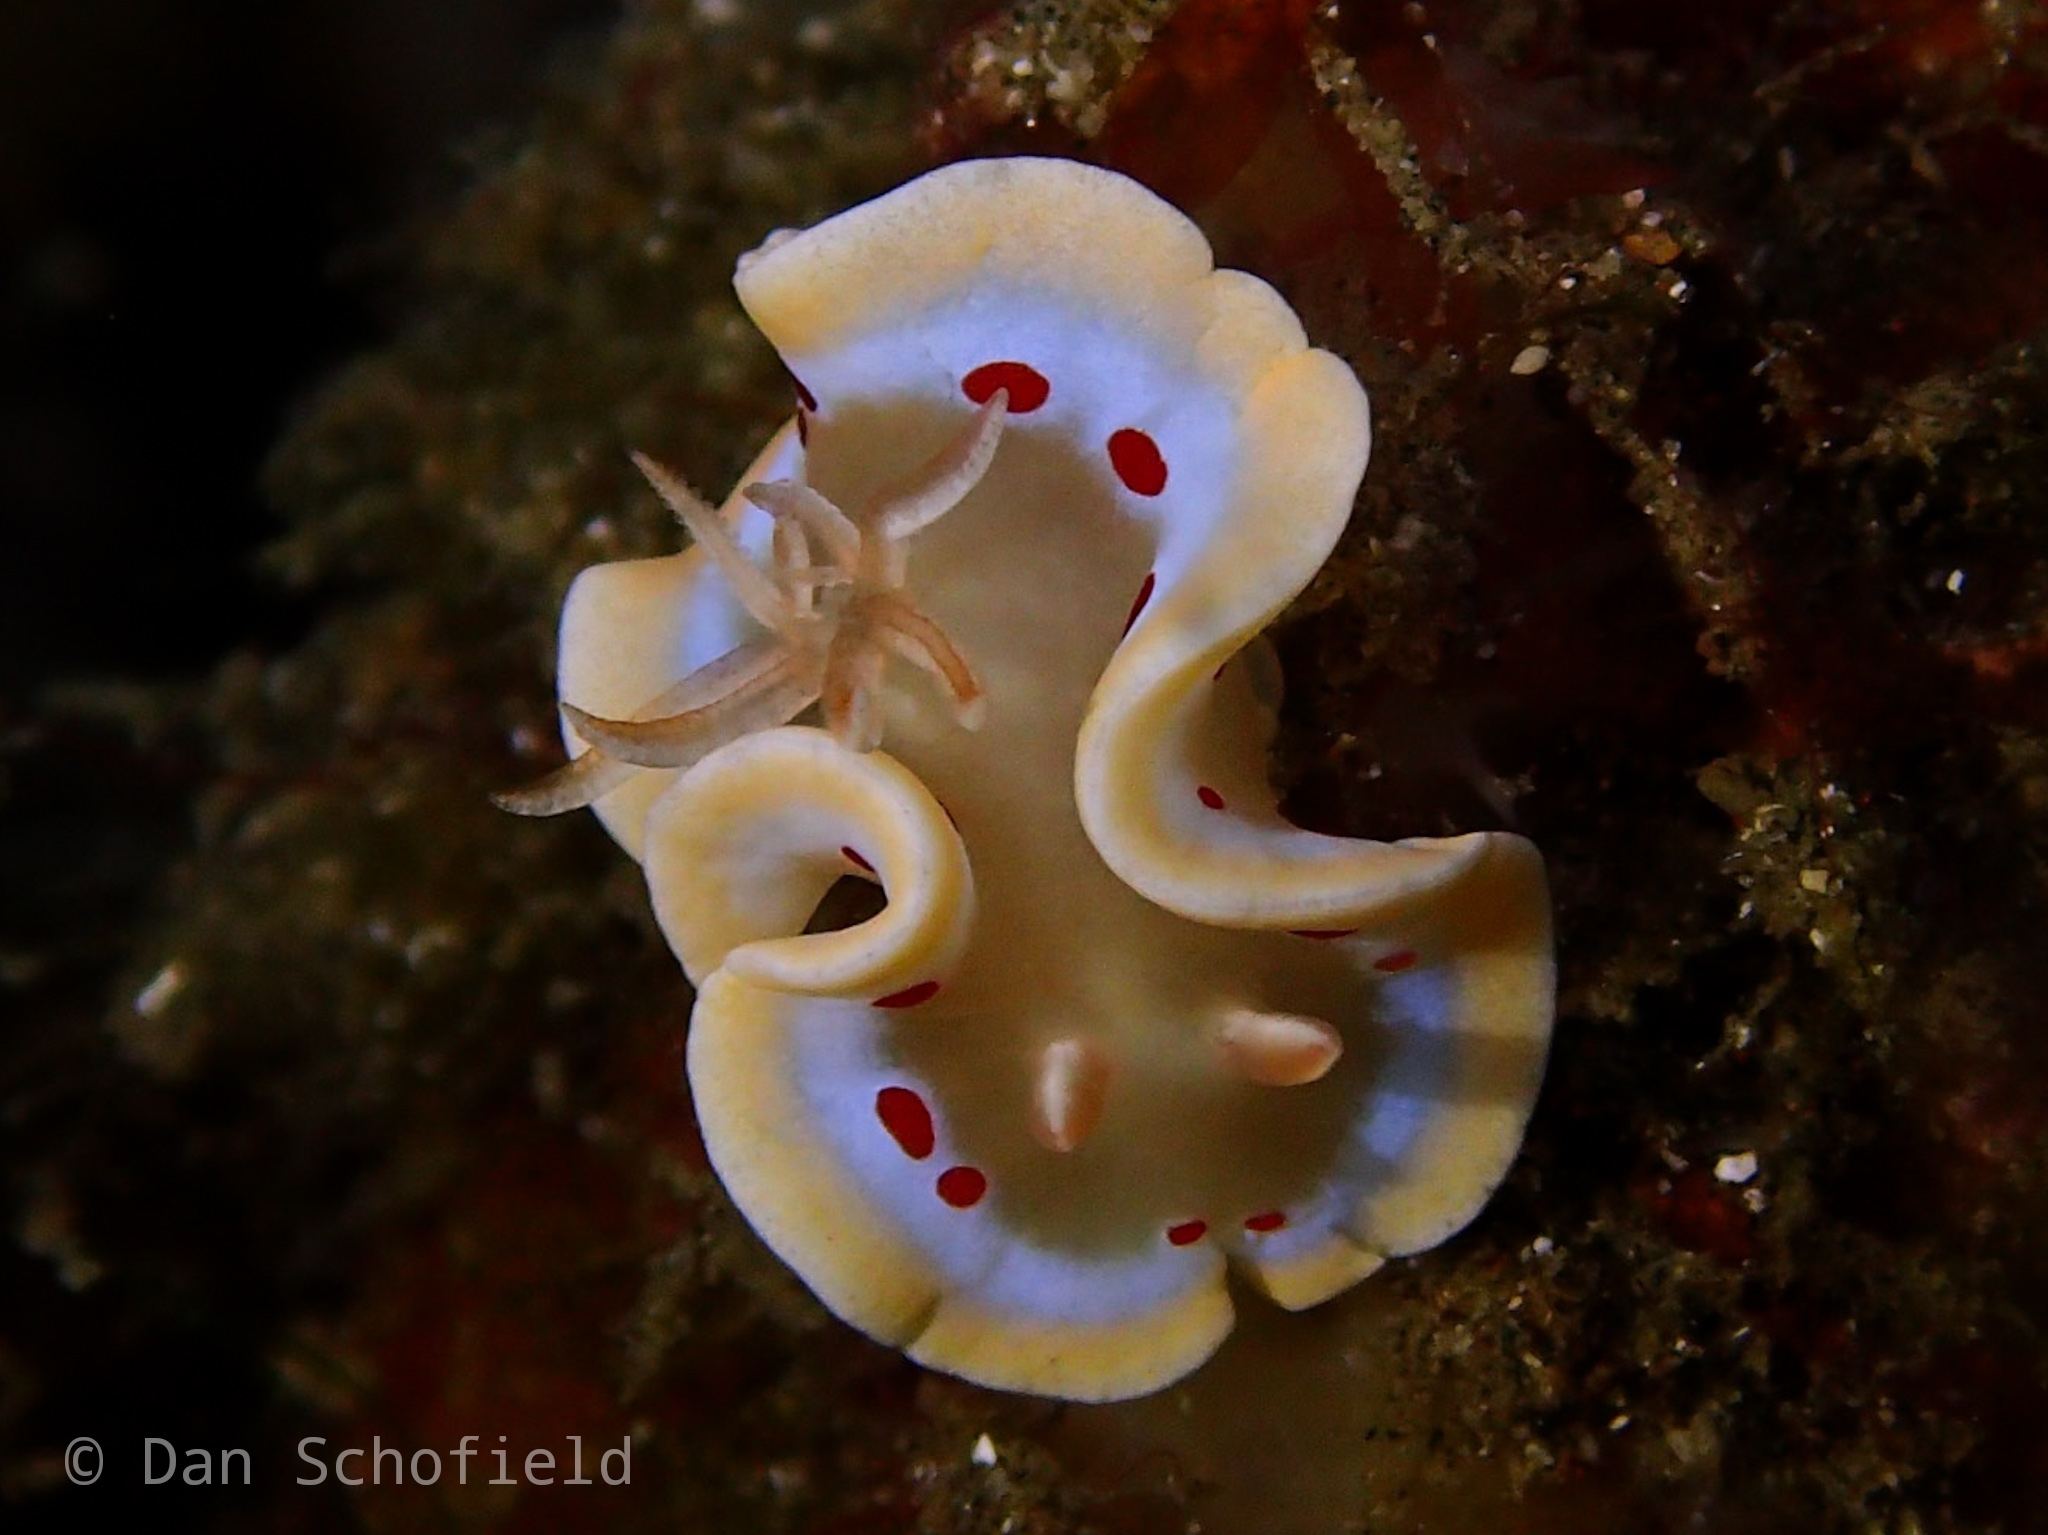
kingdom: Animalia
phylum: Mollusca
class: Gastropoda
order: Nudibranchia
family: Chromodorididae
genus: Ardeadoris
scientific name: Ardeadoris cruenta
